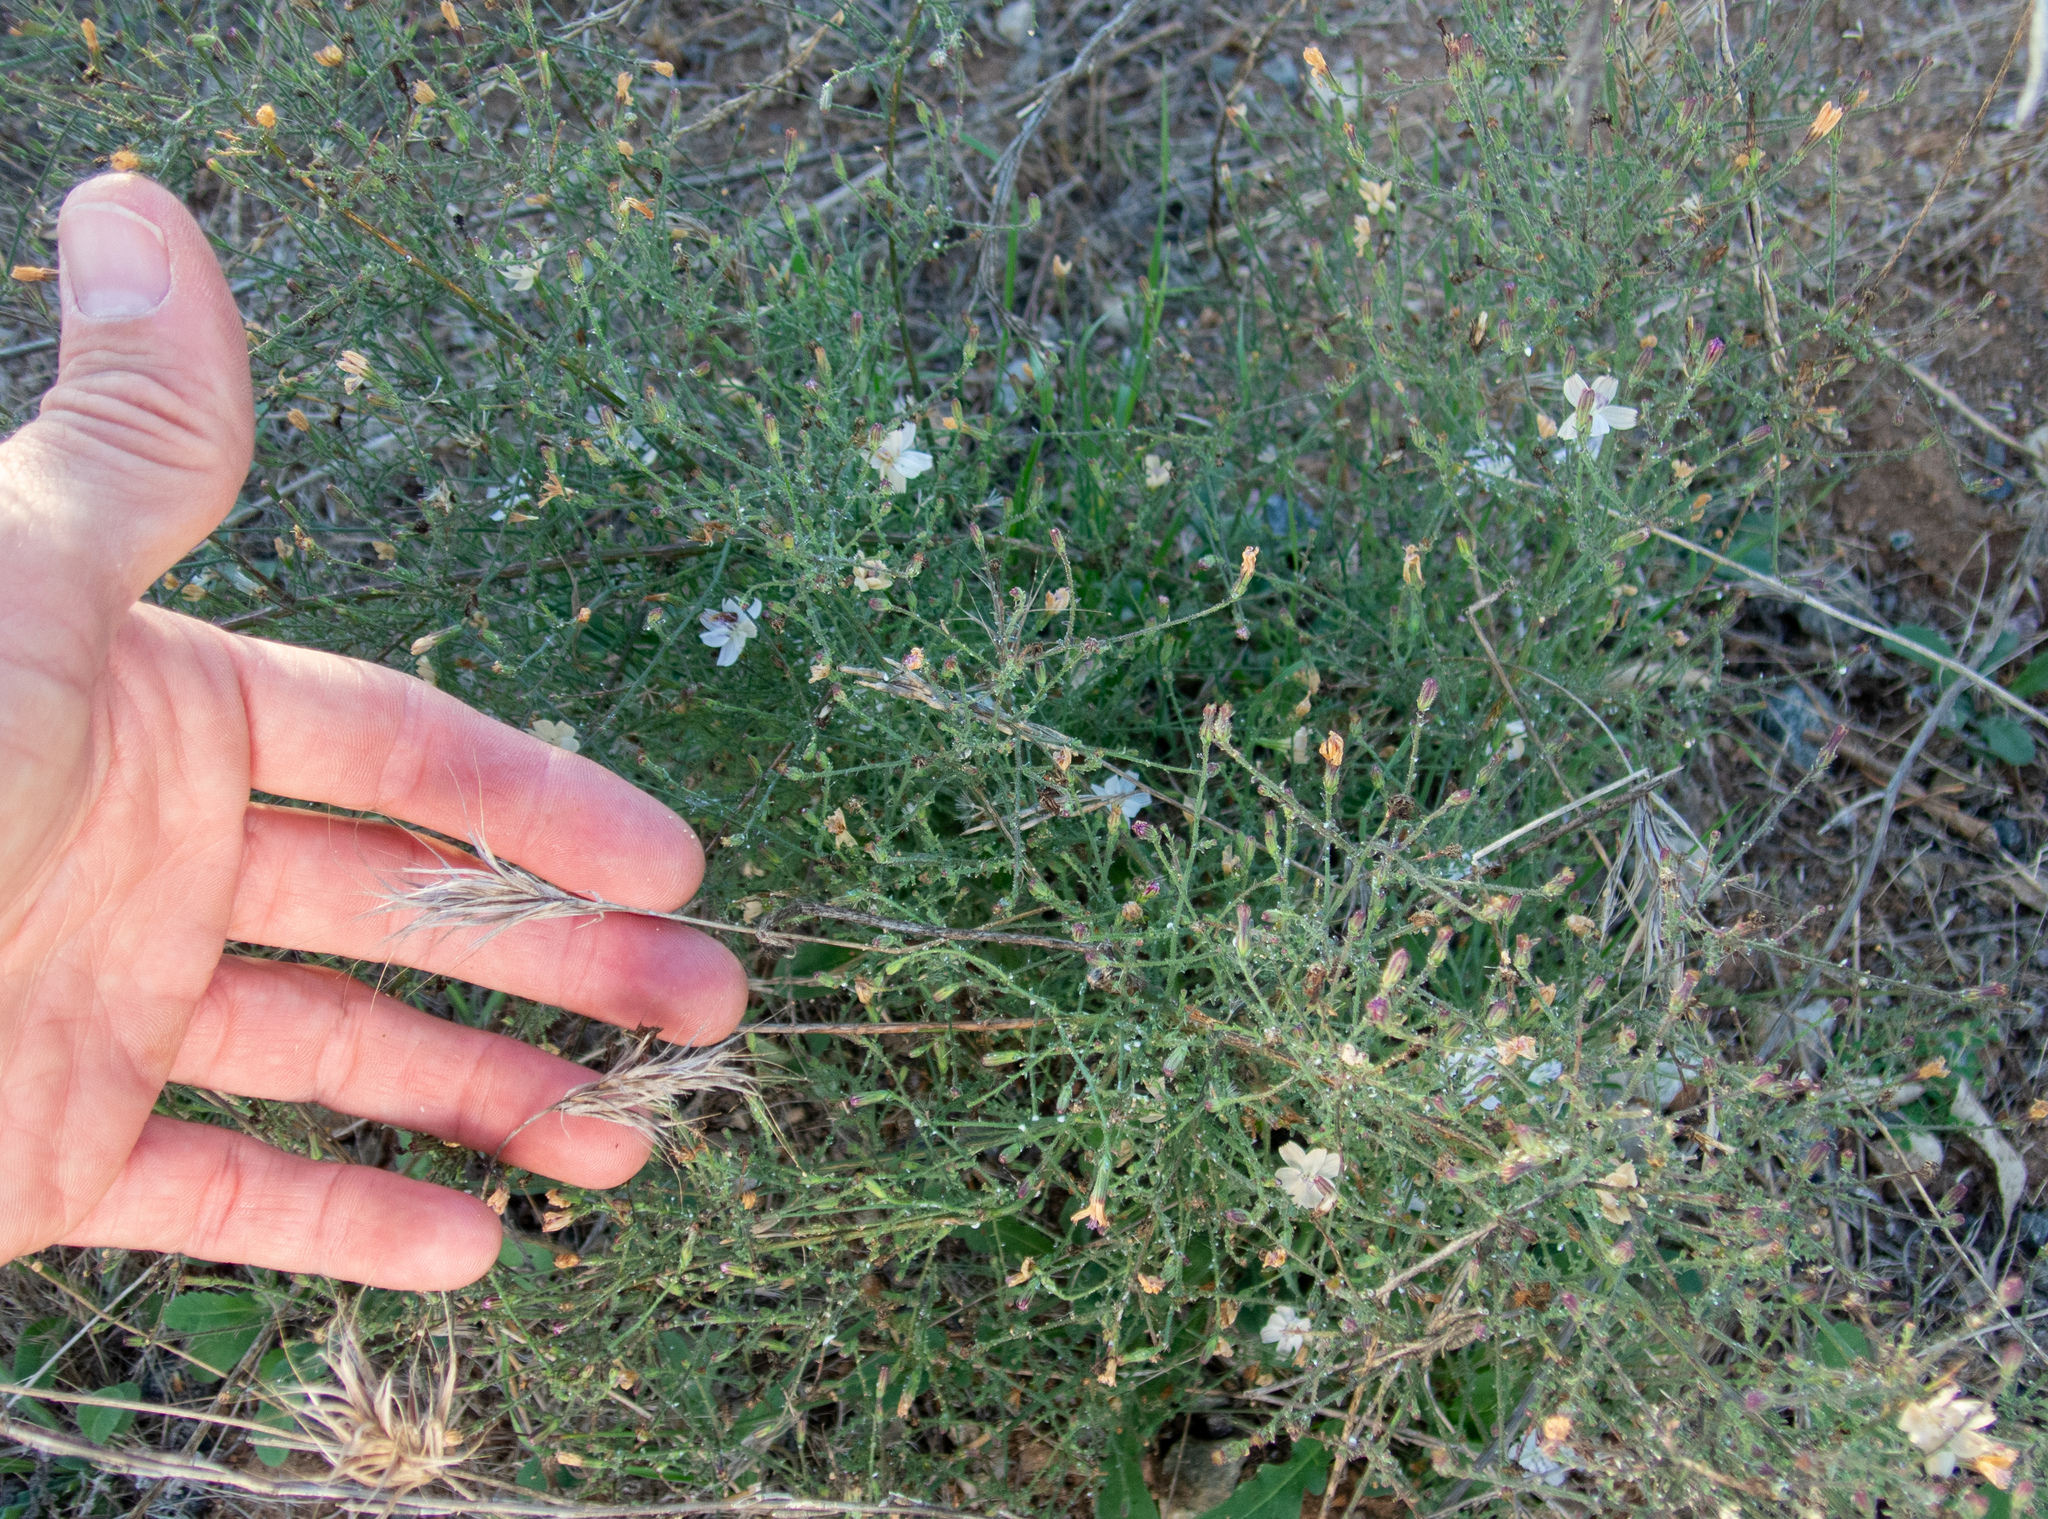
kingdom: Plantae
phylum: Tracheophyta
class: Magnoliopsida
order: Asterales
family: Asteraceae
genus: Stephanomeria
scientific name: Stephanomeria exigua
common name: Small wirelettuce
